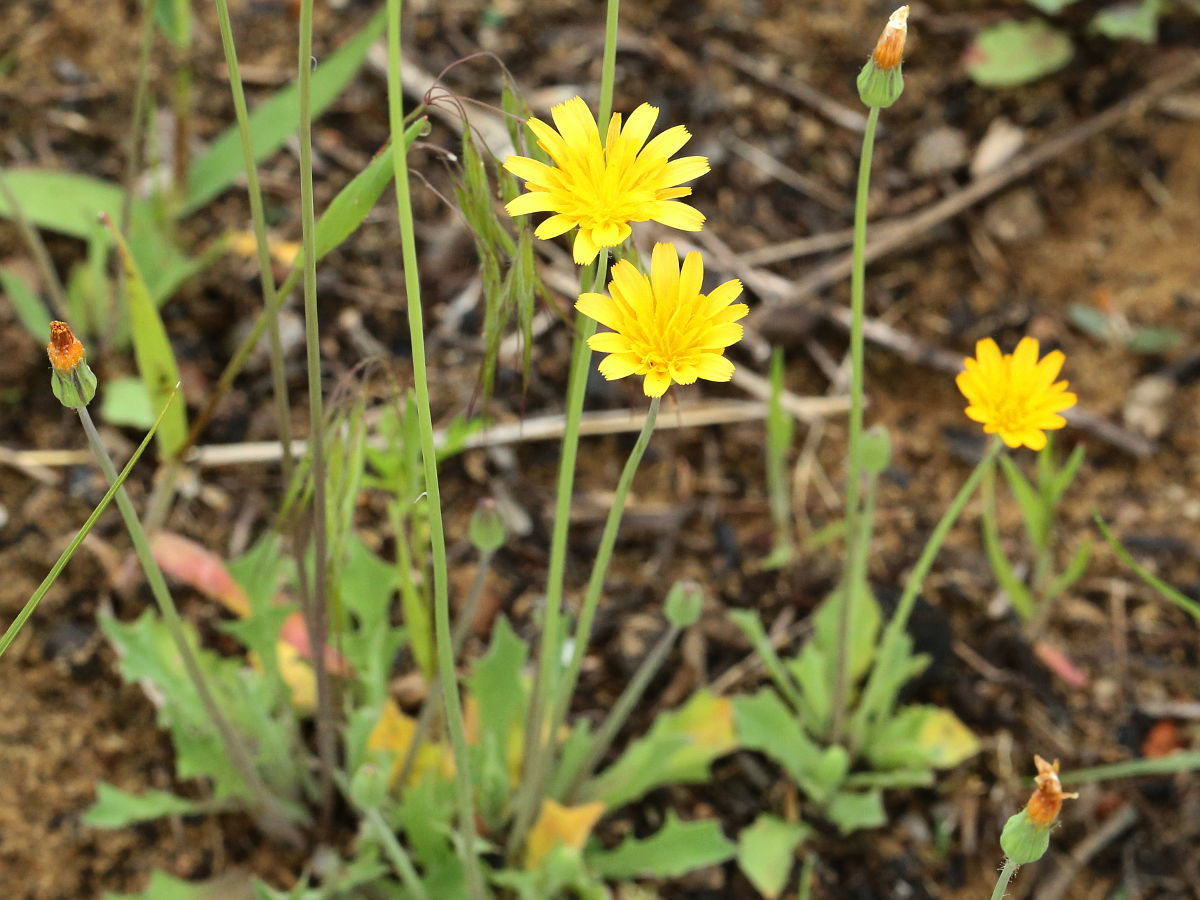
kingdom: Plantae
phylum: Tracheophyta
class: Magnoliopsida
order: Asterales
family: Asteraceae
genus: Krigia
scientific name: Krigia virginica
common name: Virginia dwarf-dandelion
